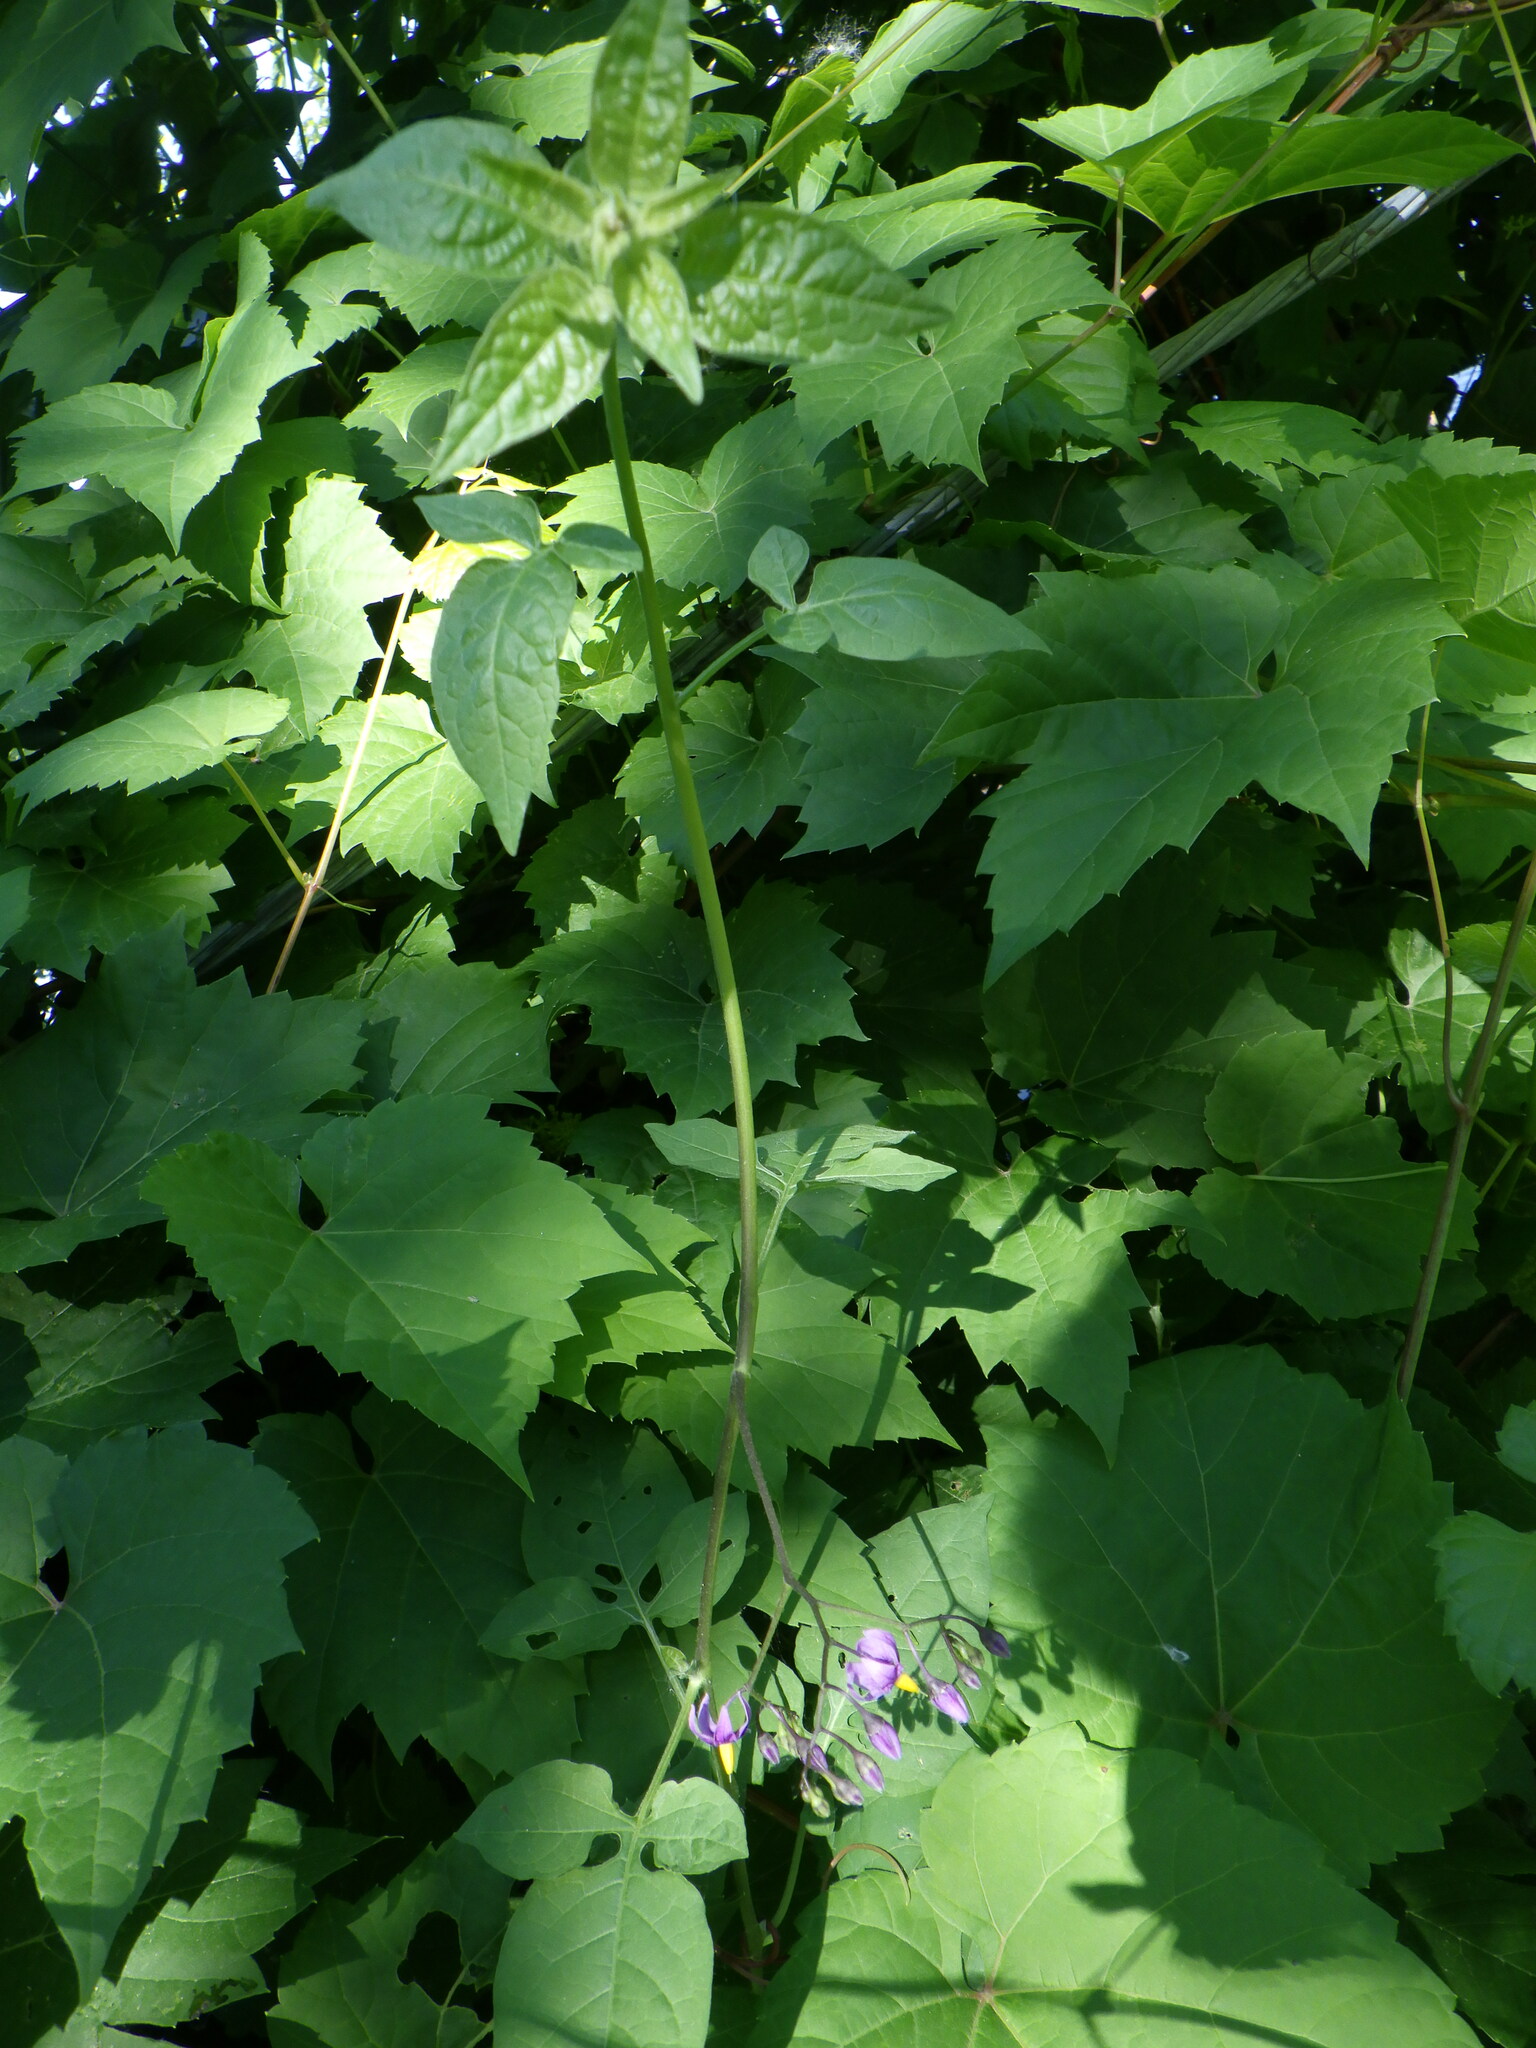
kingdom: Plantae
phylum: Tracheophyta
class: Magnoliopsida
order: Solanales
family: Solanaceae
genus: Solanum
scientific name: Solanum dulcamara
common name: Climbing nightshade
